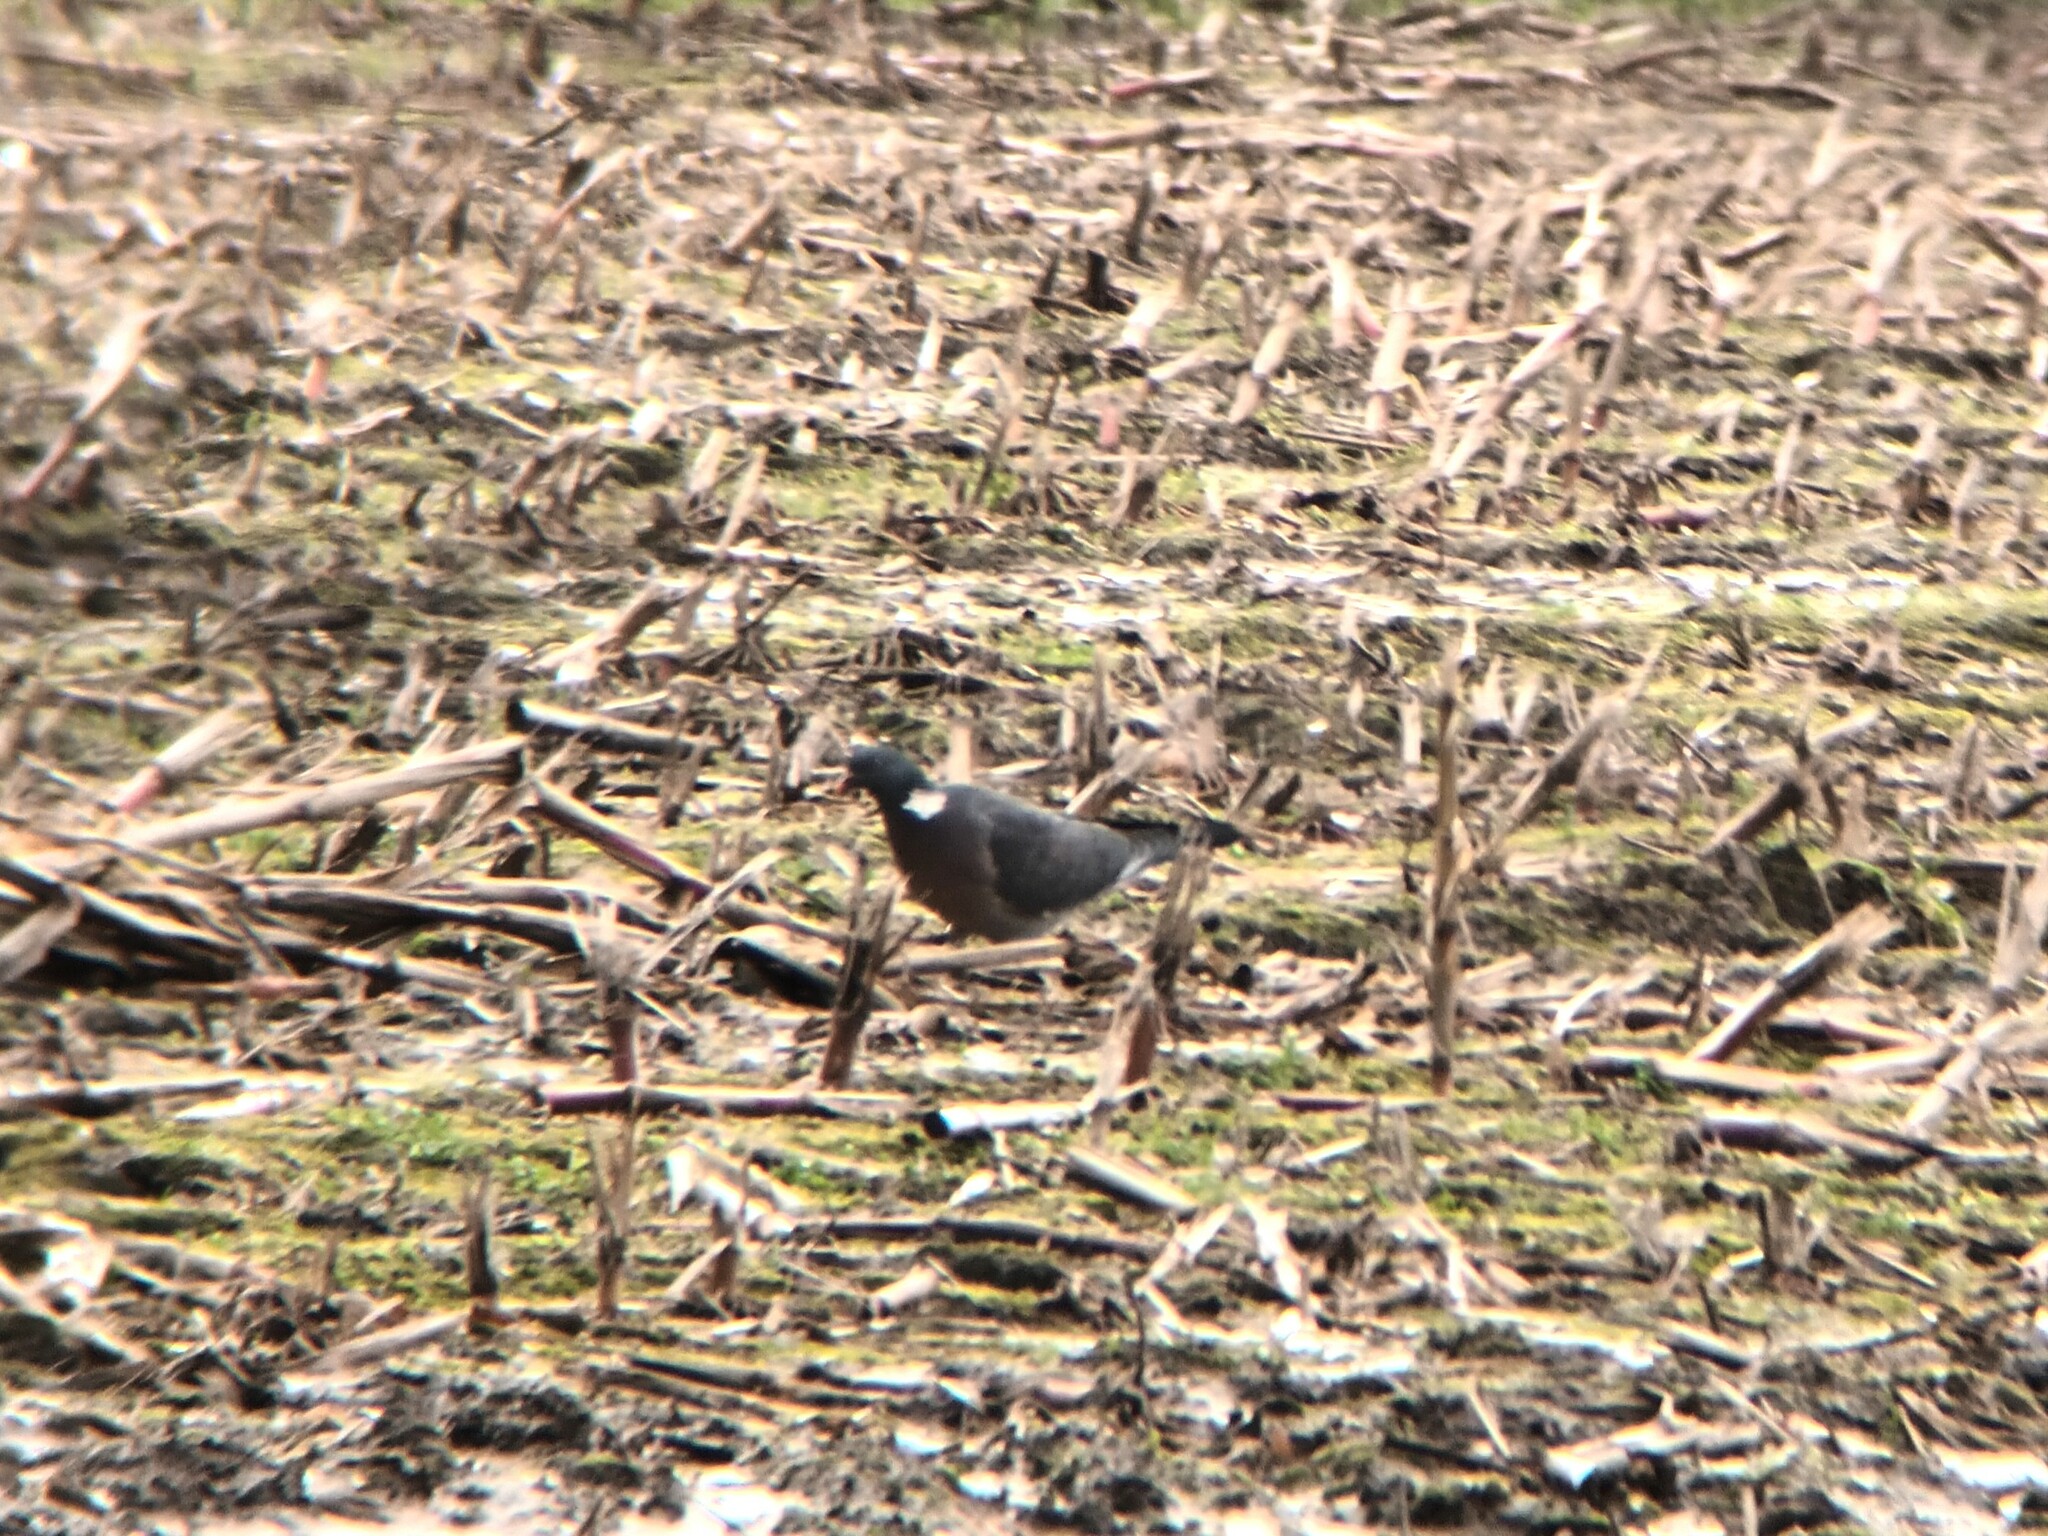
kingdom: Animalia
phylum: Chordata
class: Aves
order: Columbiformes
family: Columbidae
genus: Columba
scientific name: Columba palumbus
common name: Common wood pigeon
